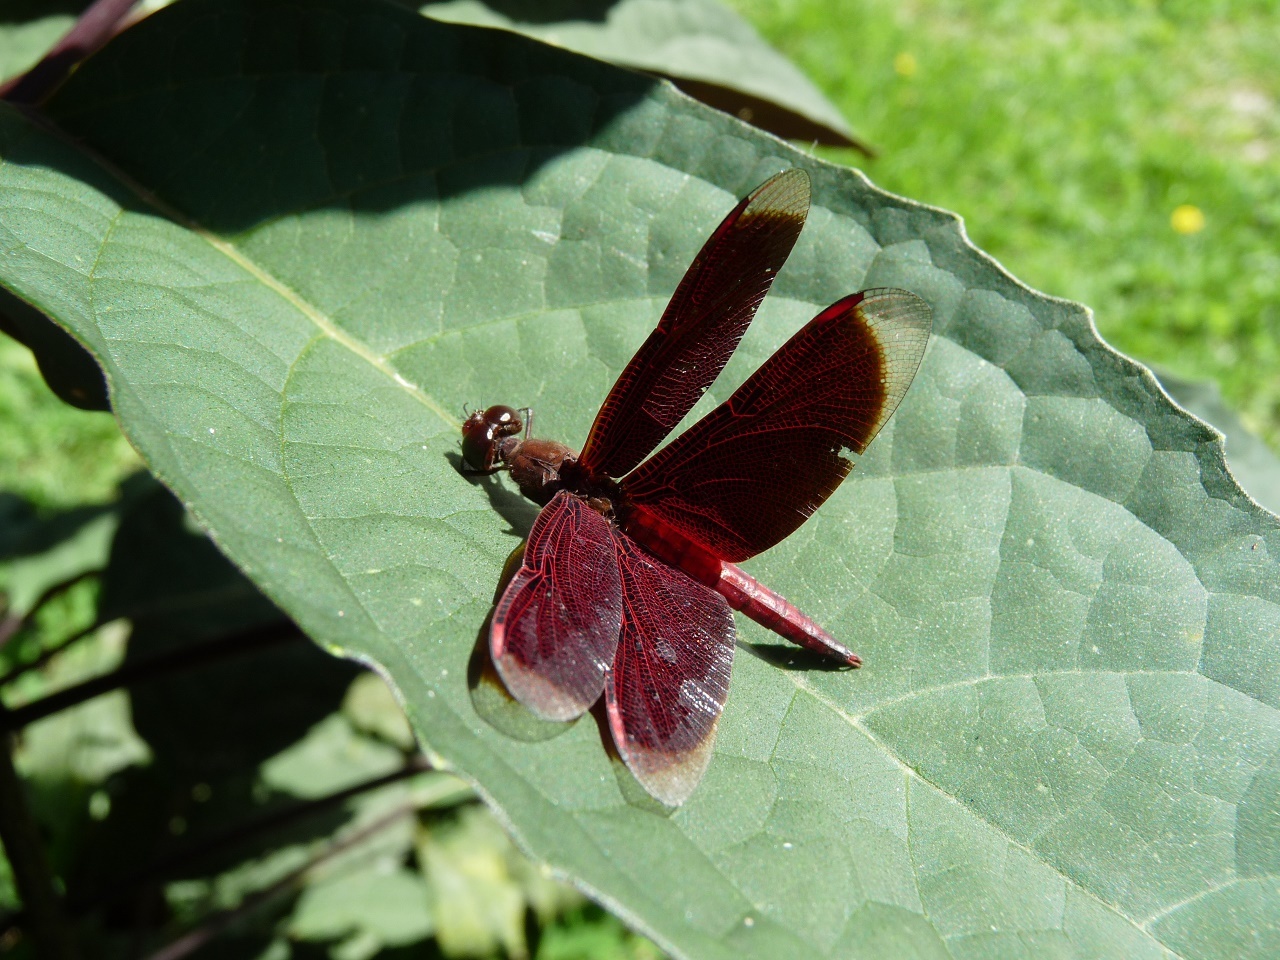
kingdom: Animalia
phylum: Arthropoda
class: Insecta
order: Odonata
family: Libellulidae
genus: Neurothemis
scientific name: Neurothemis fluctuans
